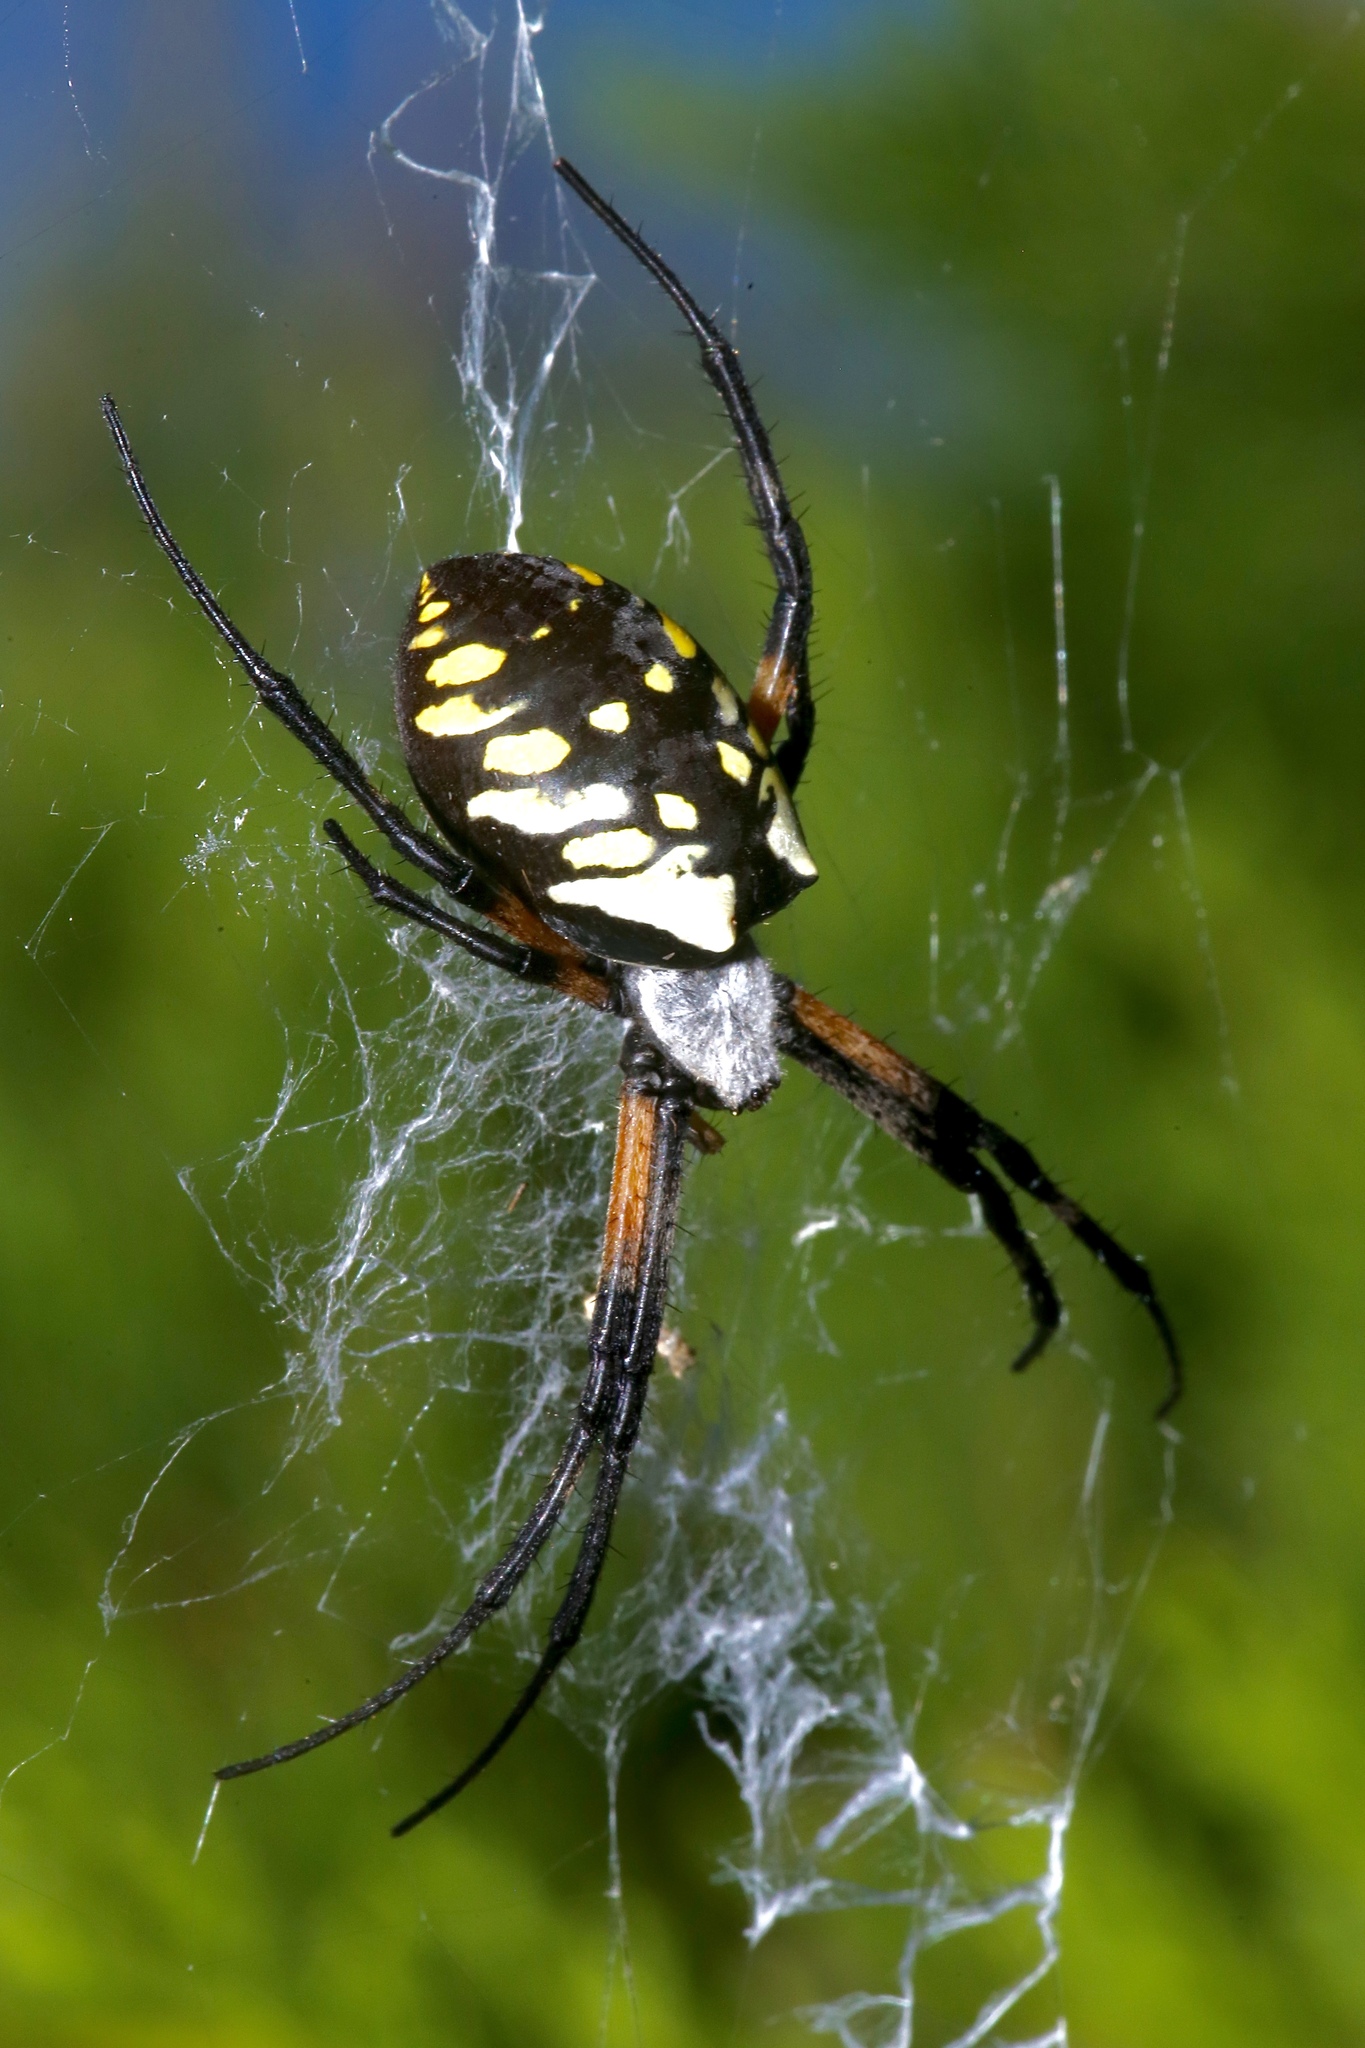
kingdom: Animalia
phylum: Arthropoda
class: Arachnida
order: Araneae
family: Araneidae
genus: Argiope
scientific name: Argiope aurantia
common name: Orb weavers
